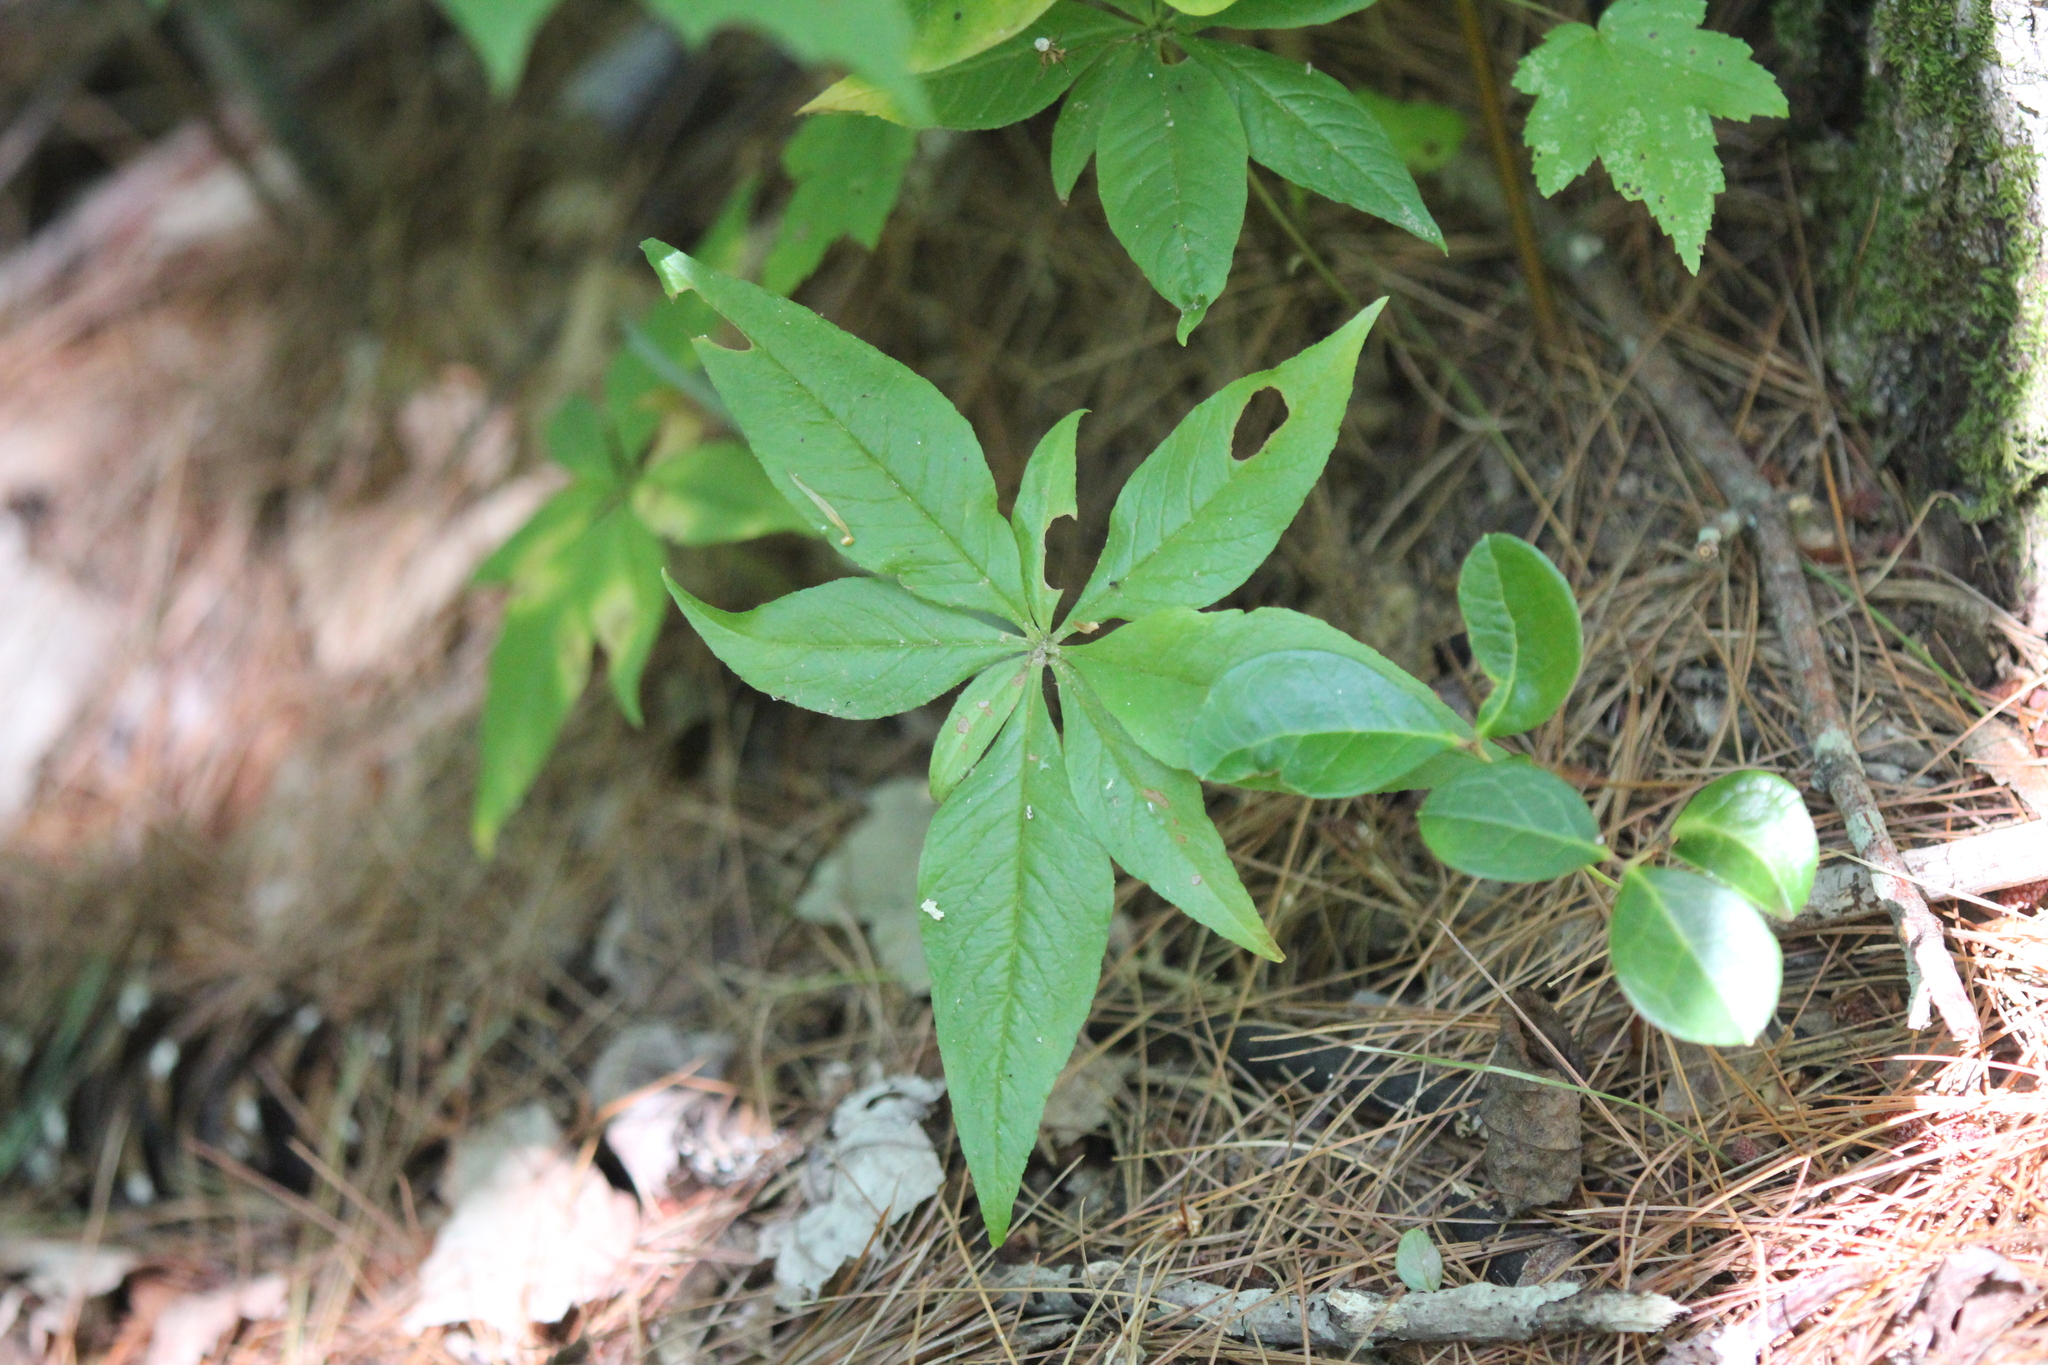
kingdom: Plantae
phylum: Tracheophyta
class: Magnoliopsida
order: Ericales
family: Primulaceae
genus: Lysimachia
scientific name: Lysimachia borealis
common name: American starflower
